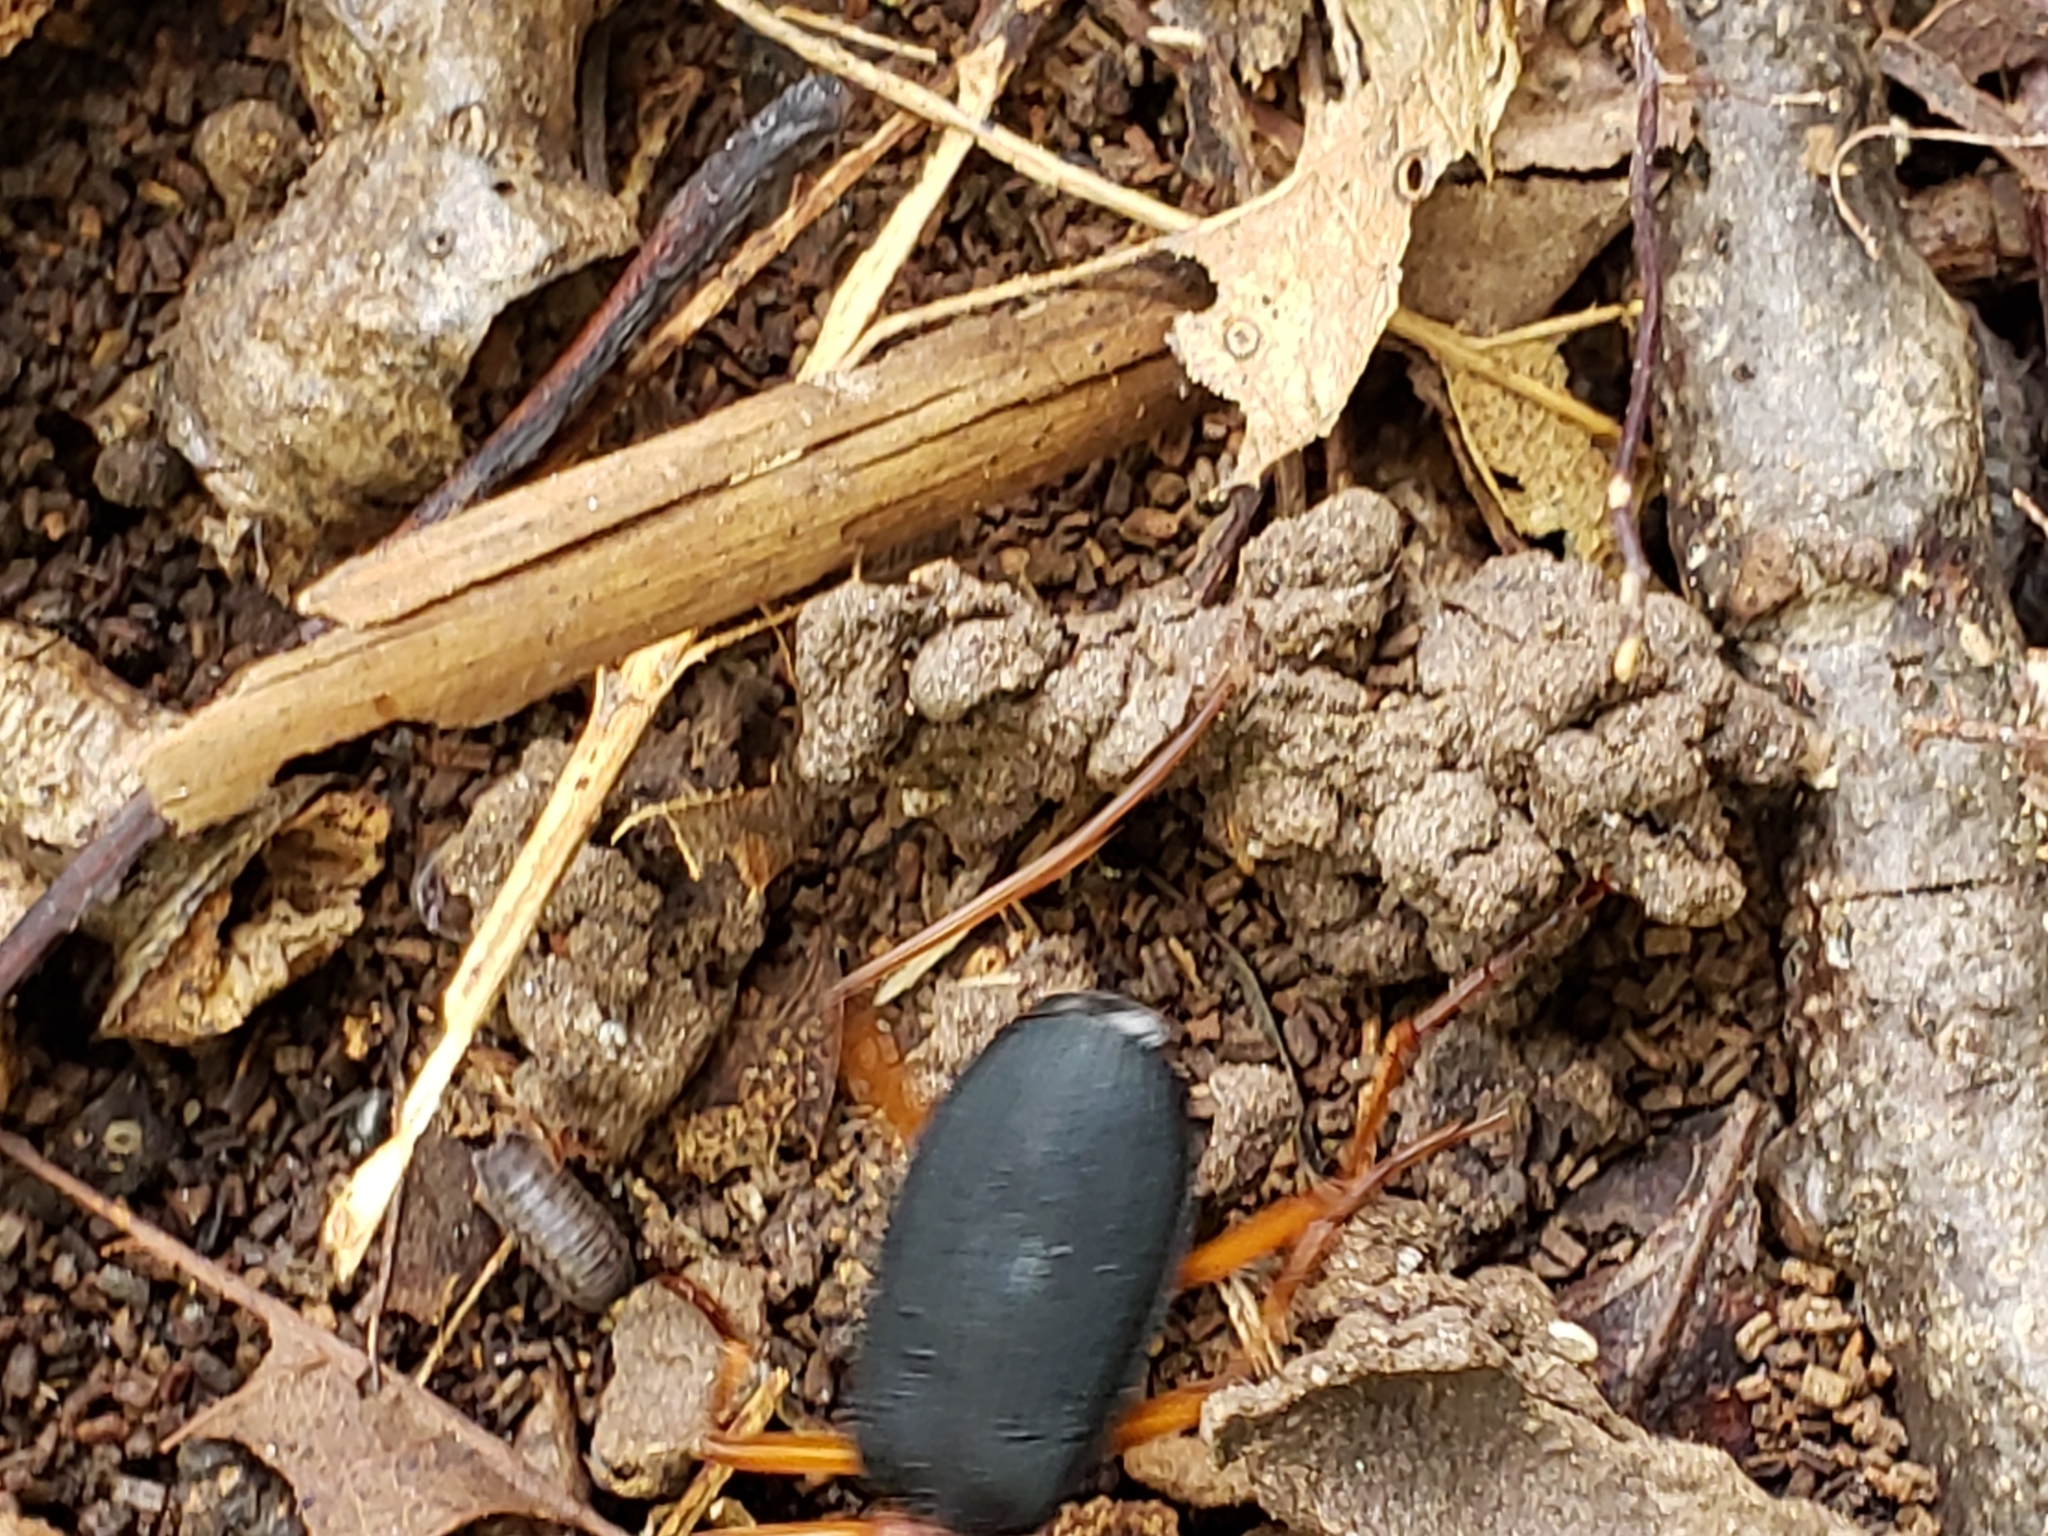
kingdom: Animalia
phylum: Arthropoda
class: Insecta
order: Coleoptera
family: Carabidae
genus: Galerita
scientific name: Galerita bicolor
